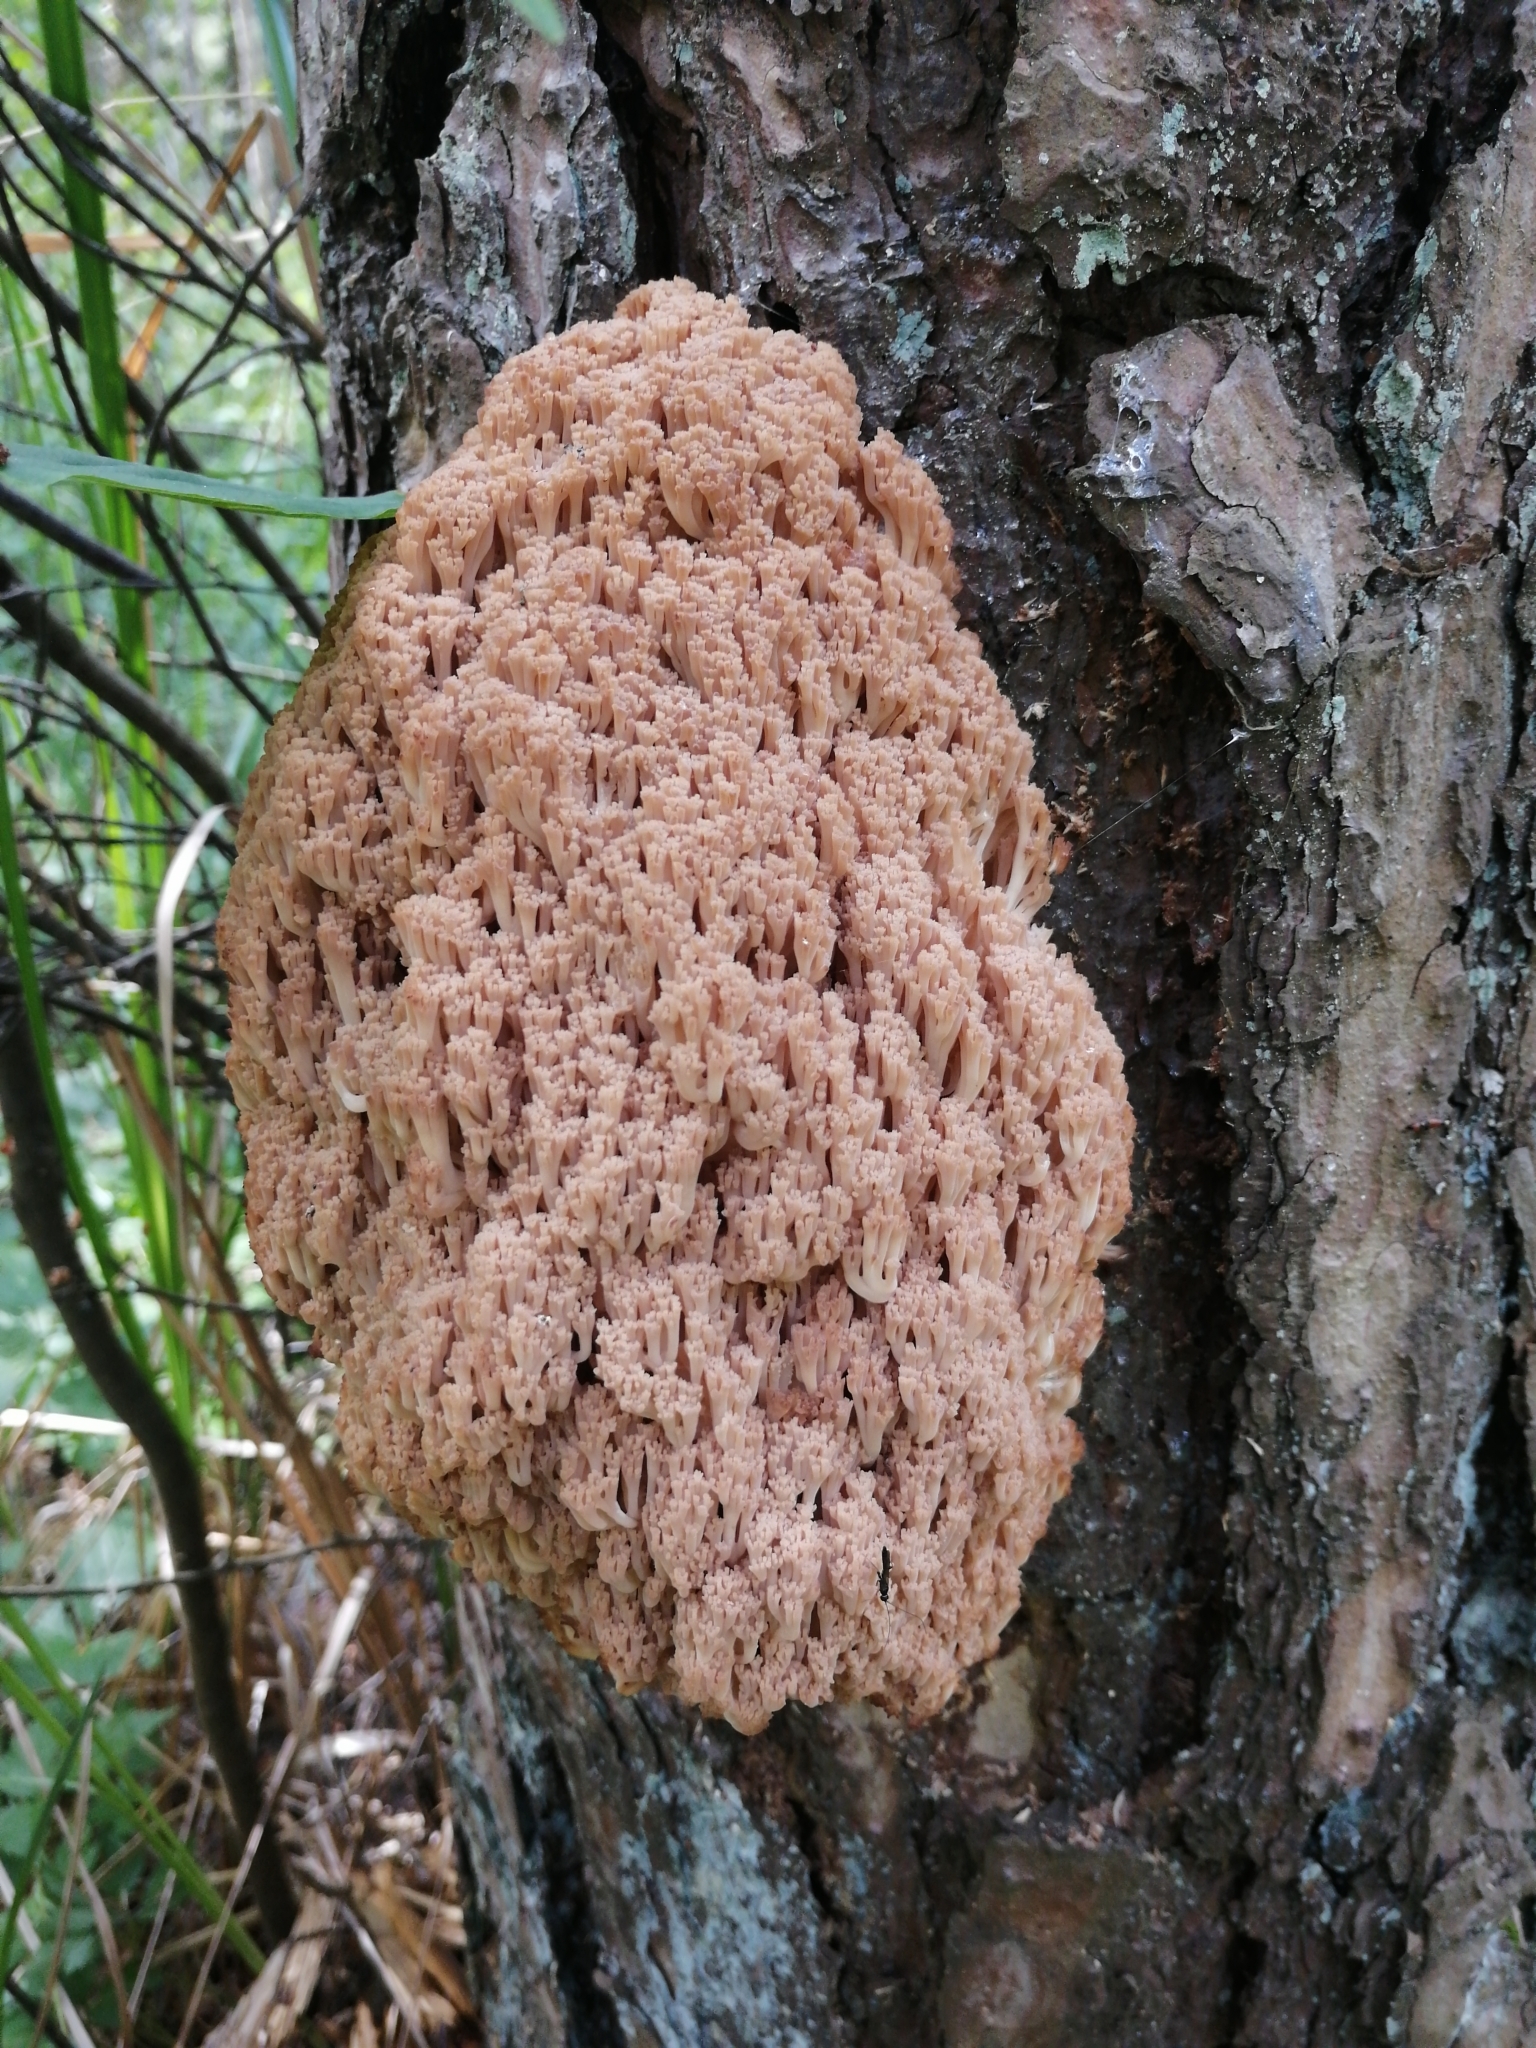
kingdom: Fungi
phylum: Basidiomycota
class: Agaricomycetes
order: Russulales
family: Auriscalpiaceae
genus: Artomyces
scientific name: Artomyces microsporus
